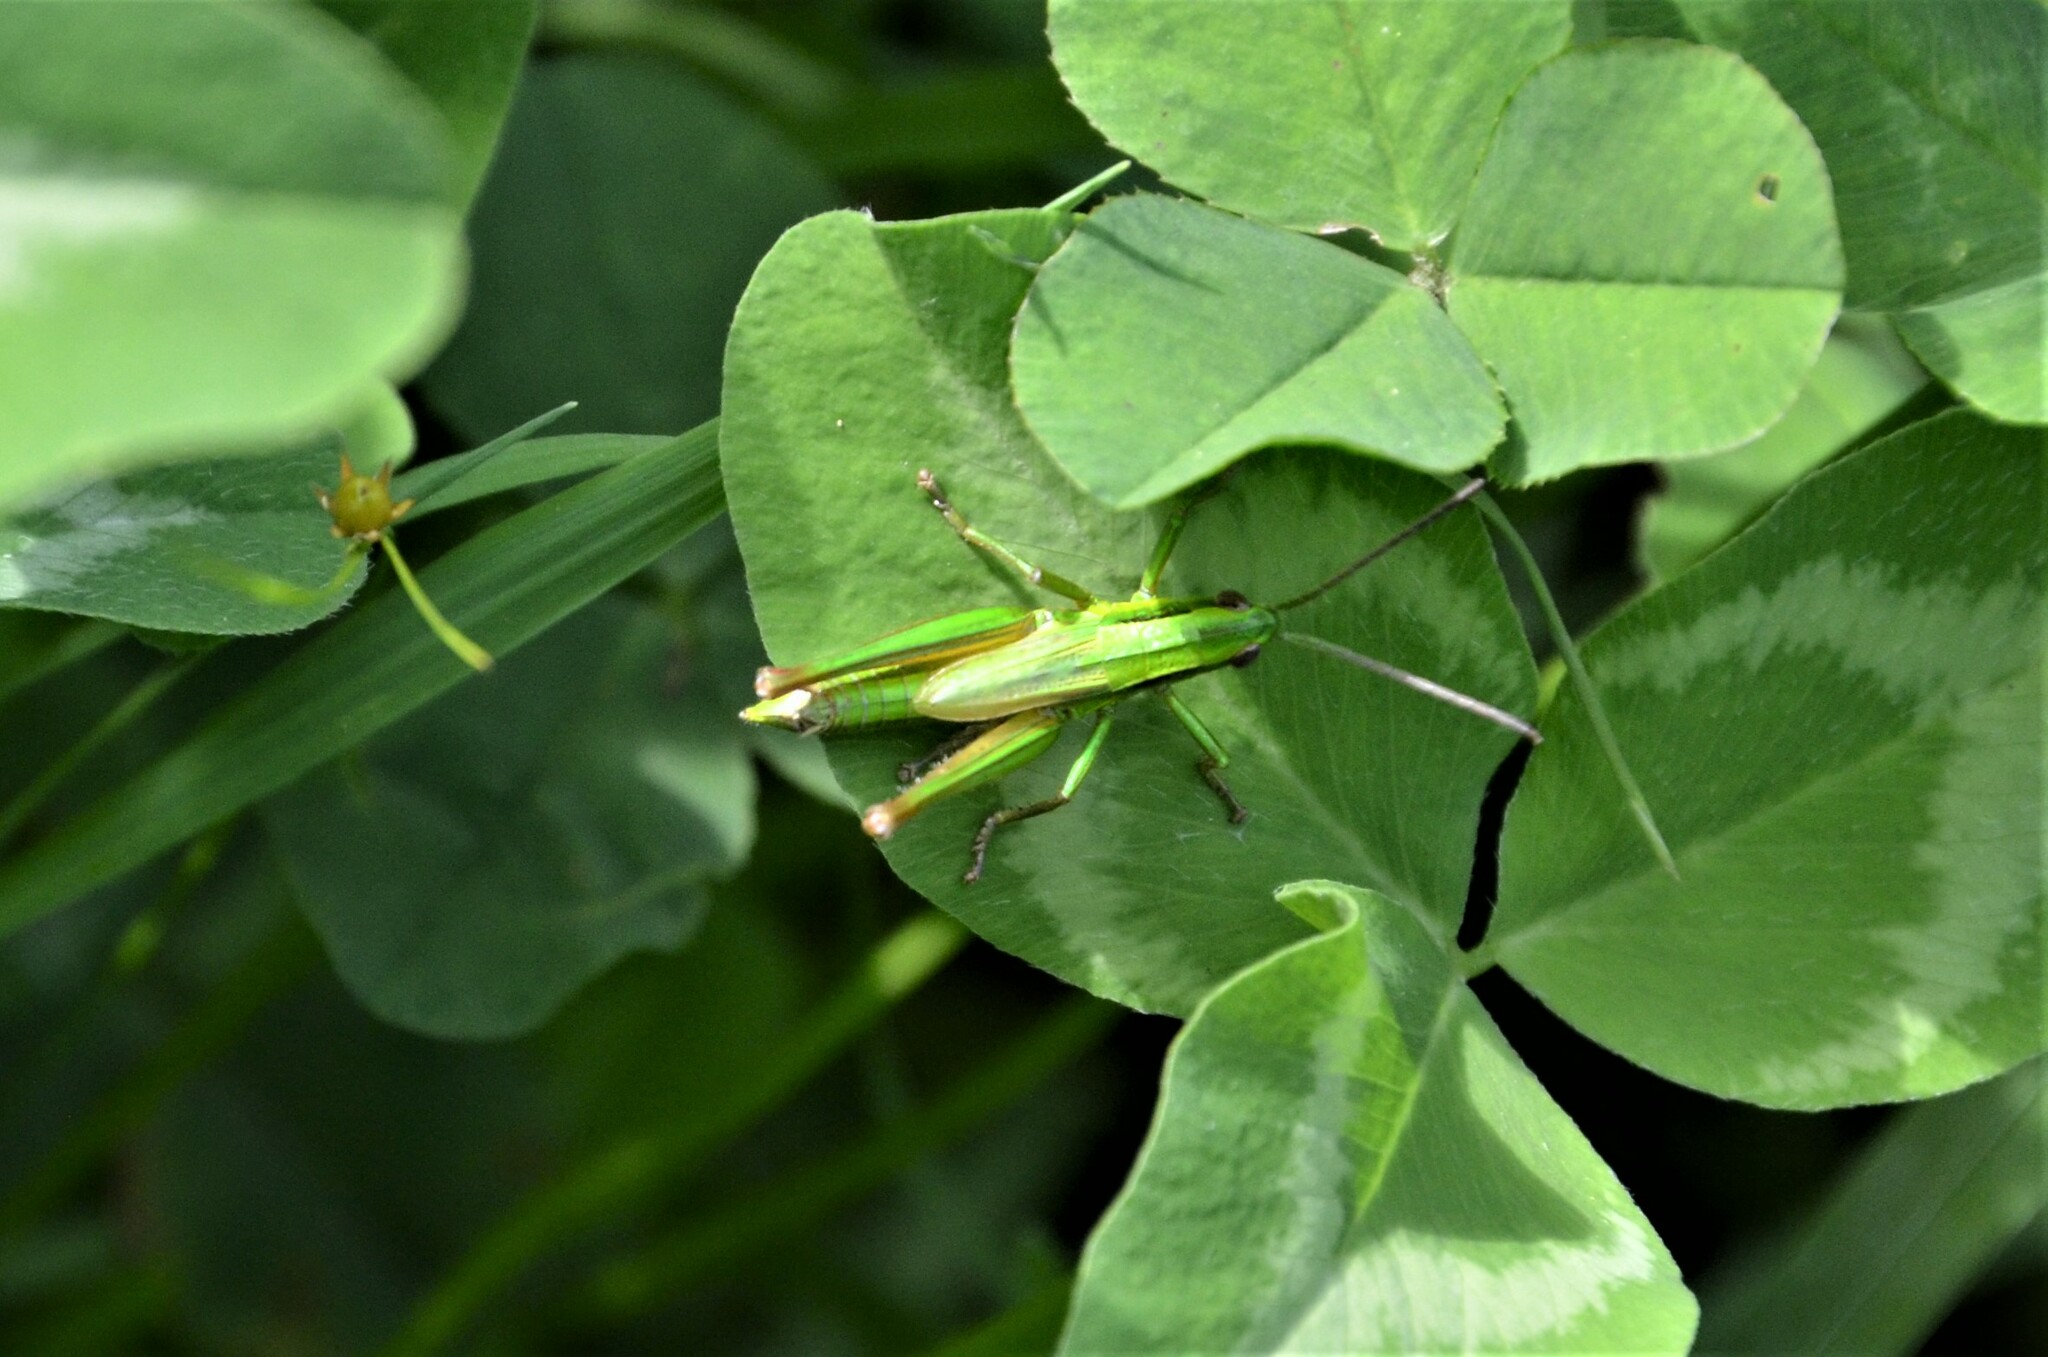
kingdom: Animalia
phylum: Arthropoda
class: Insecta
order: Orthoptera
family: Acrididae
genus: Euthystira
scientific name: Euthystira brachyptera
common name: Small gold grasshopper
